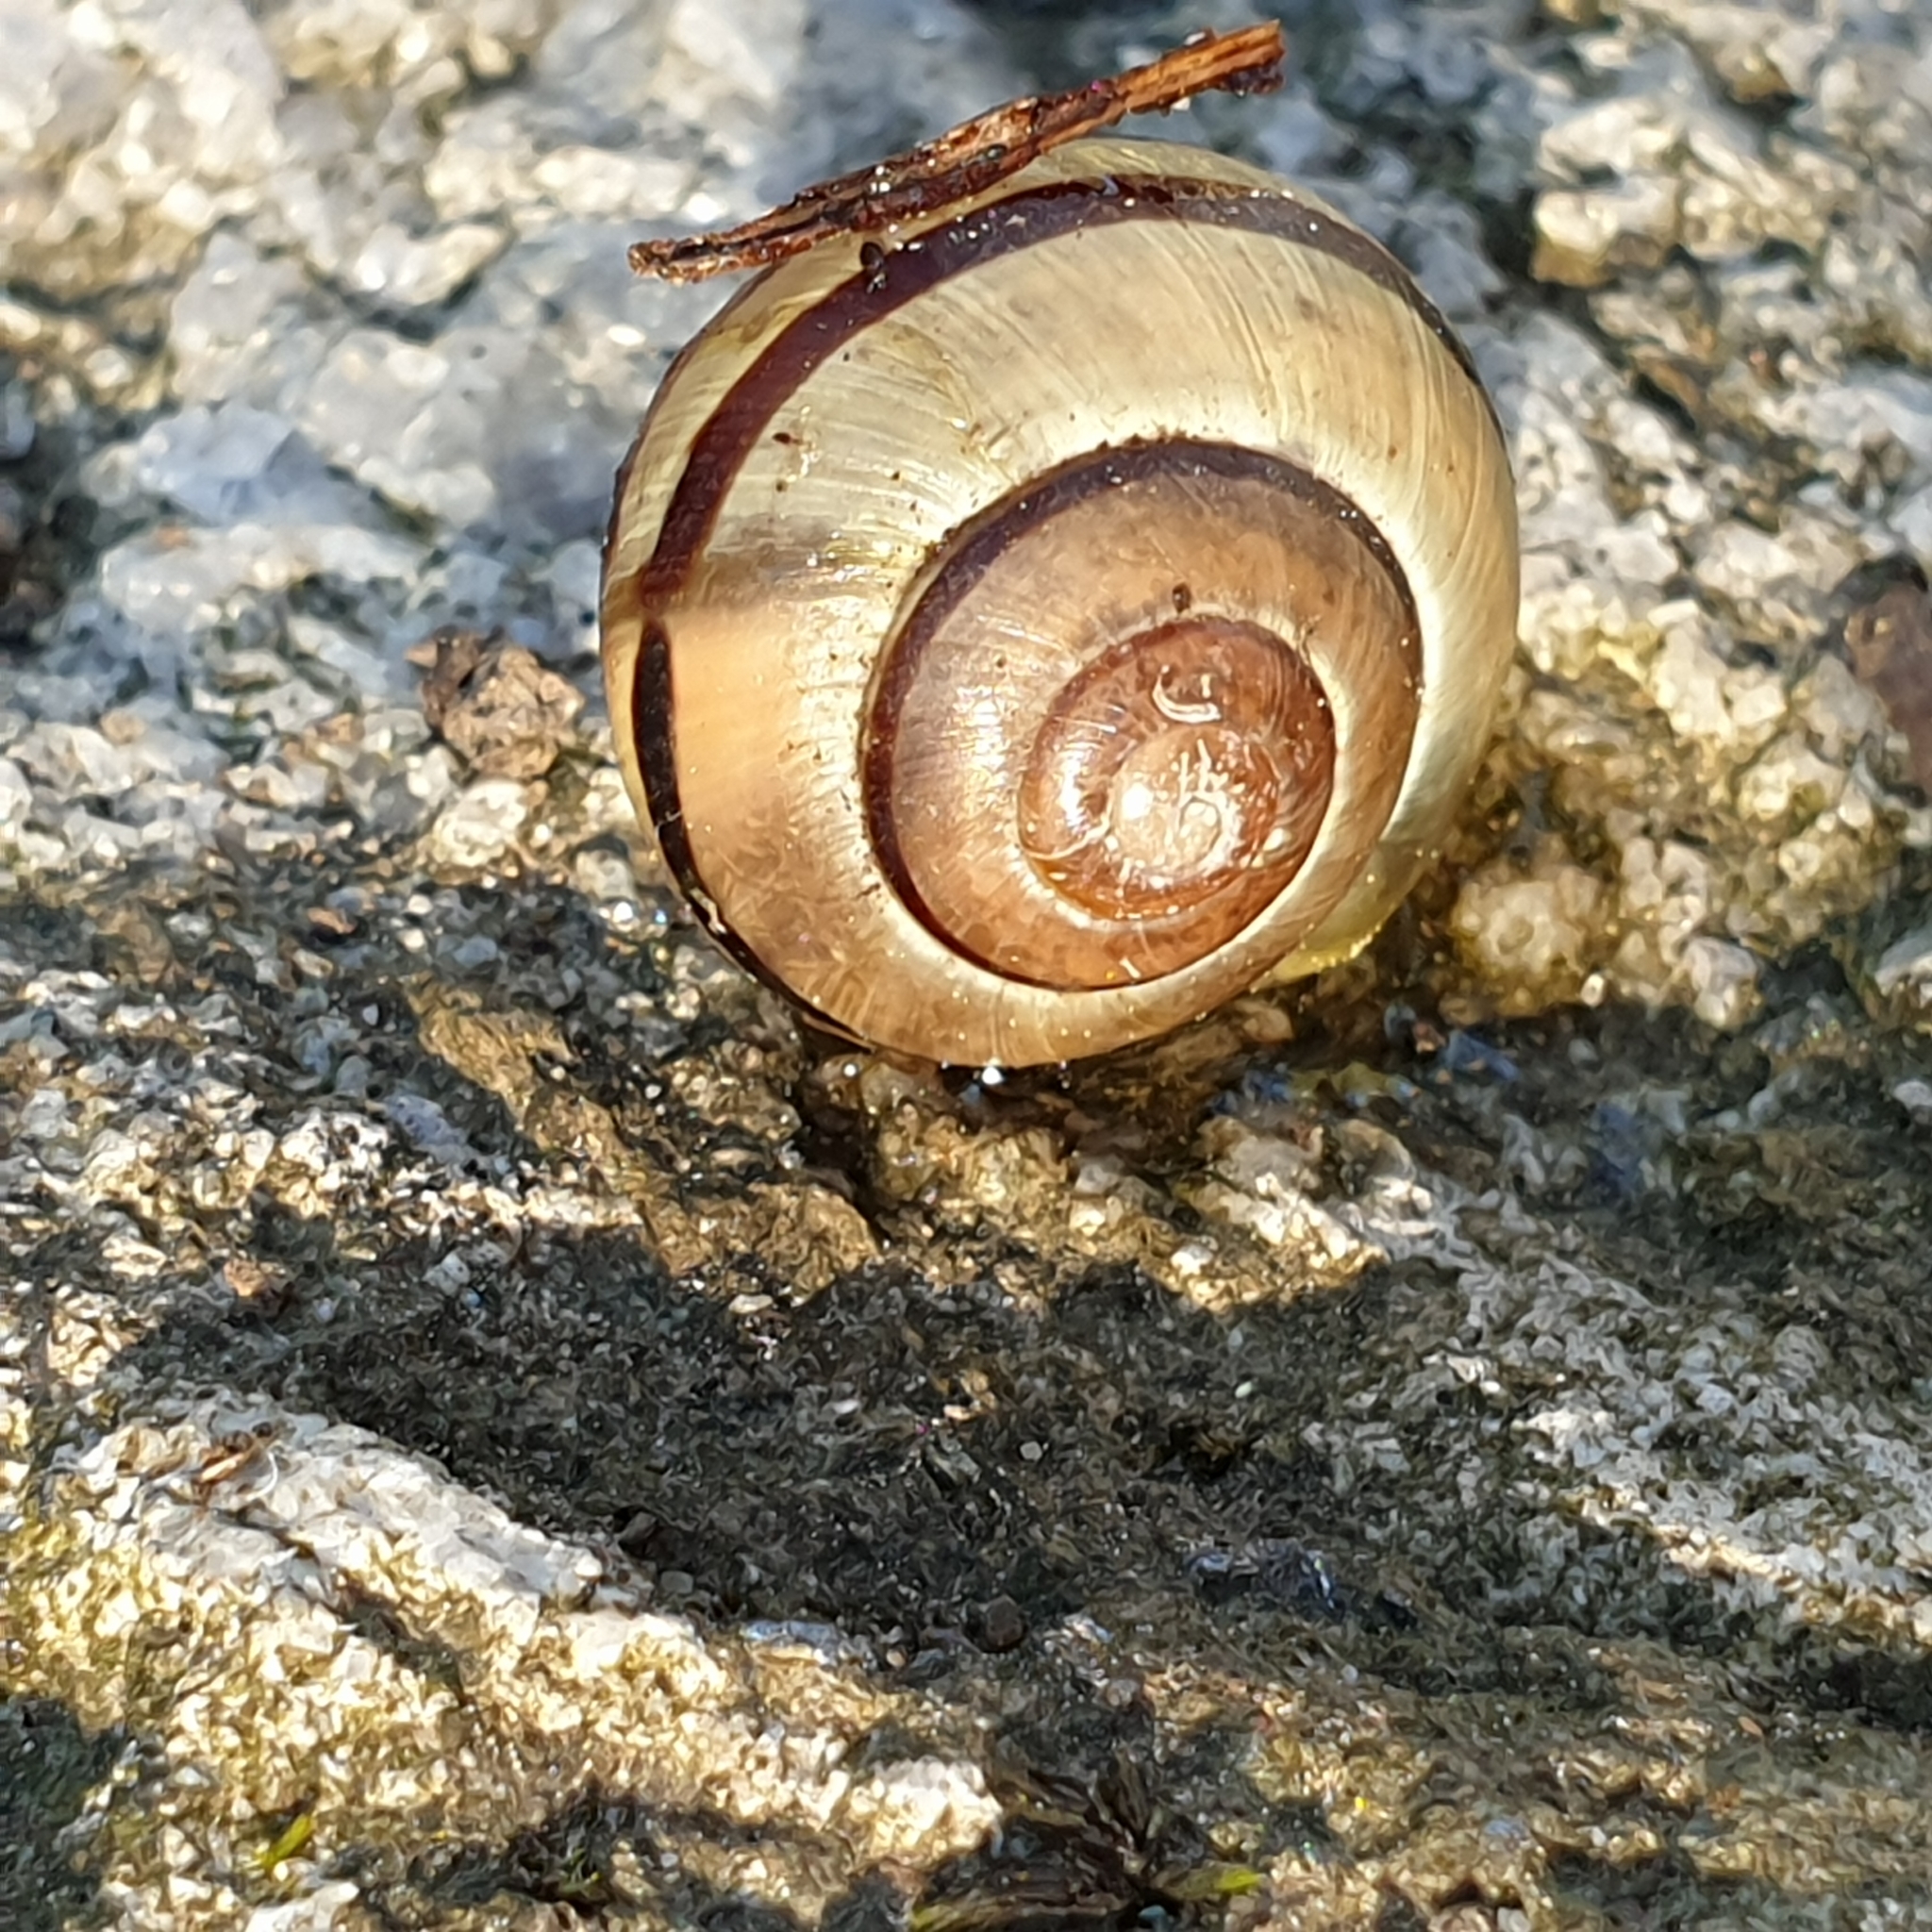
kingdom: Animalia
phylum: Mollusca
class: Gastropoda
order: Stylommatophora
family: Helicidae
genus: Cepaea
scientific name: Cepaea
